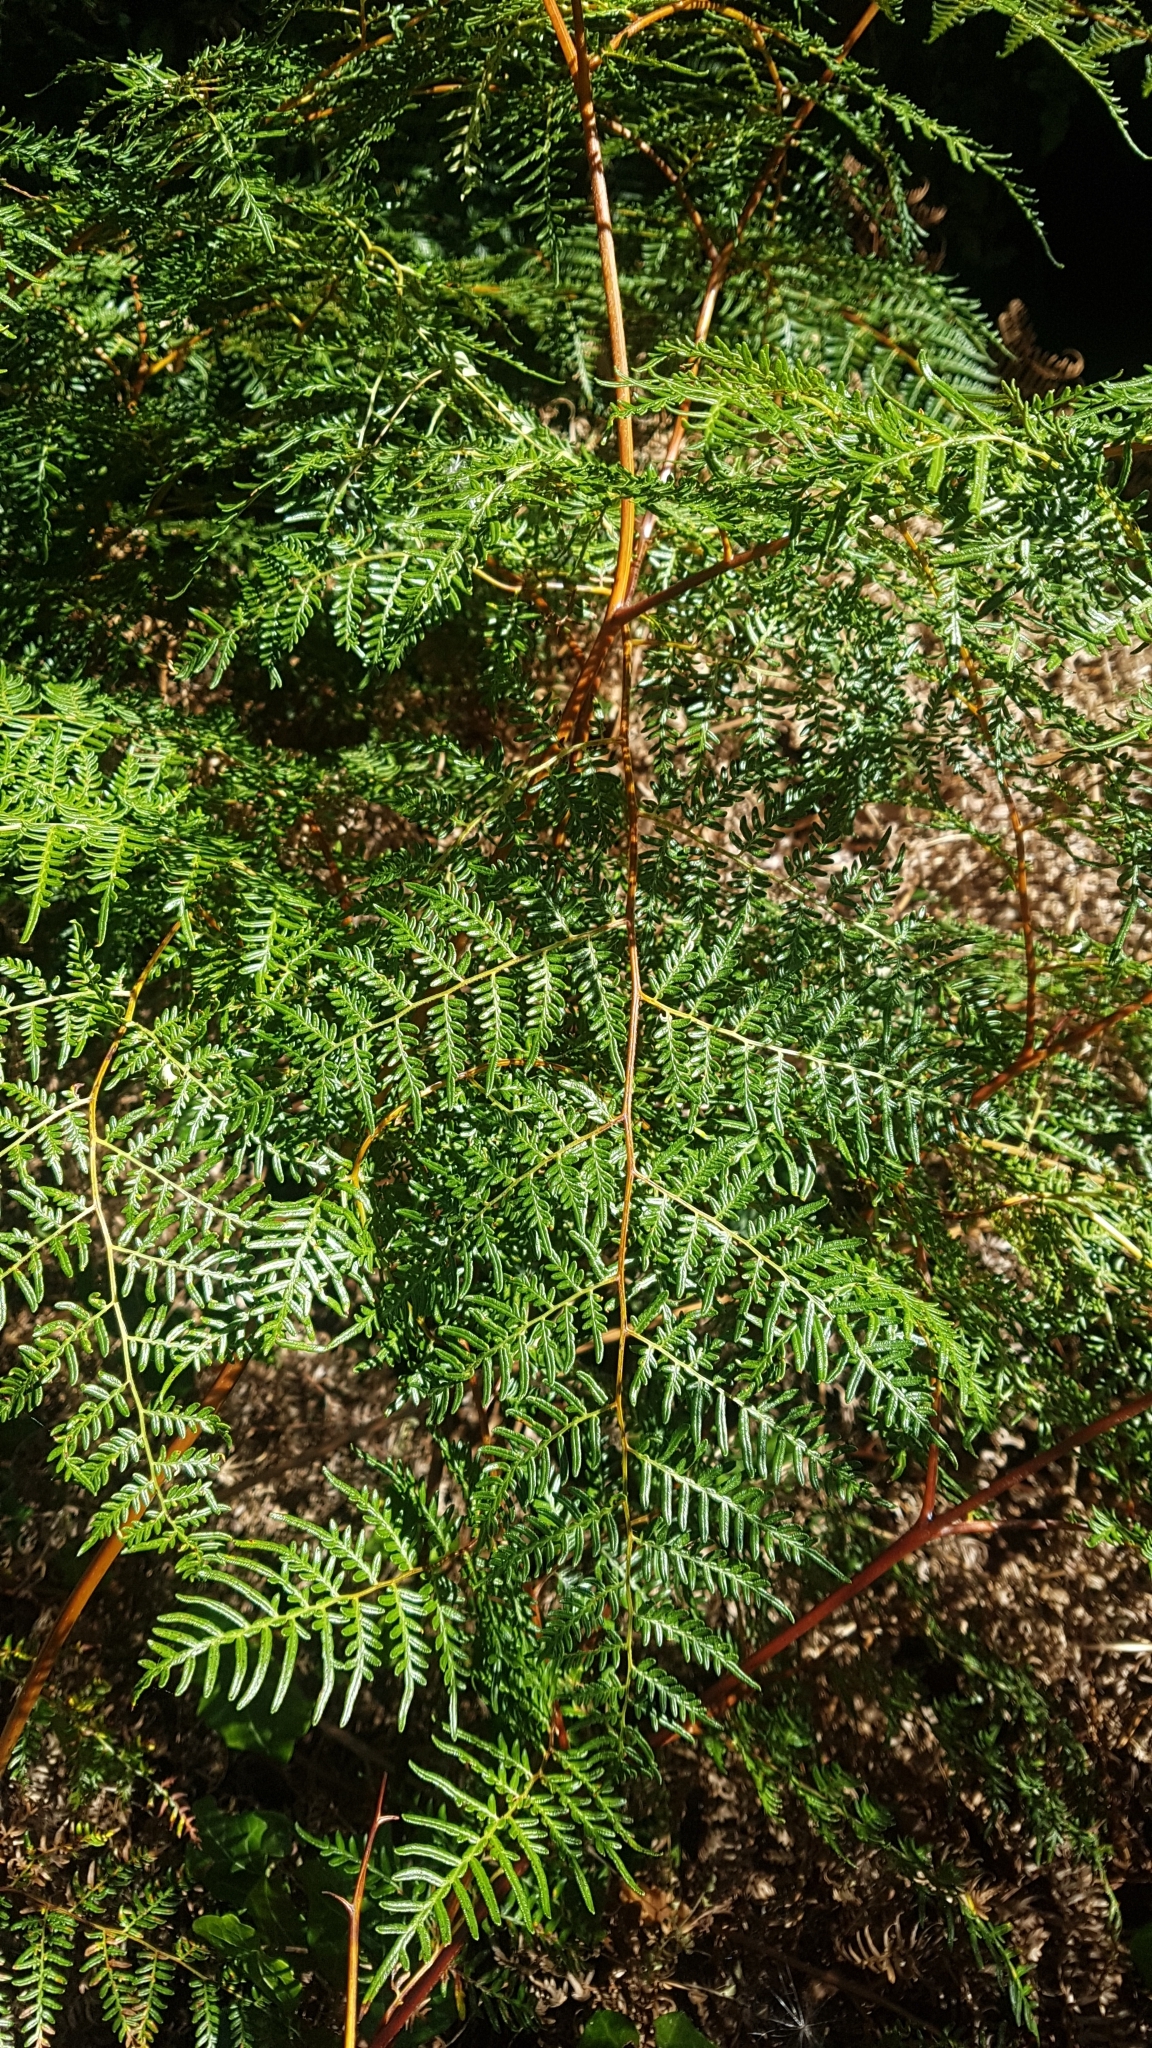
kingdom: Plantae
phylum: Tracheophyta
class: Polypodiopsida
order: Polypodiales
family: Dennstaedtiaceae
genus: Pteridium
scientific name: Pteridium esculentum
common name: Bracken fern
